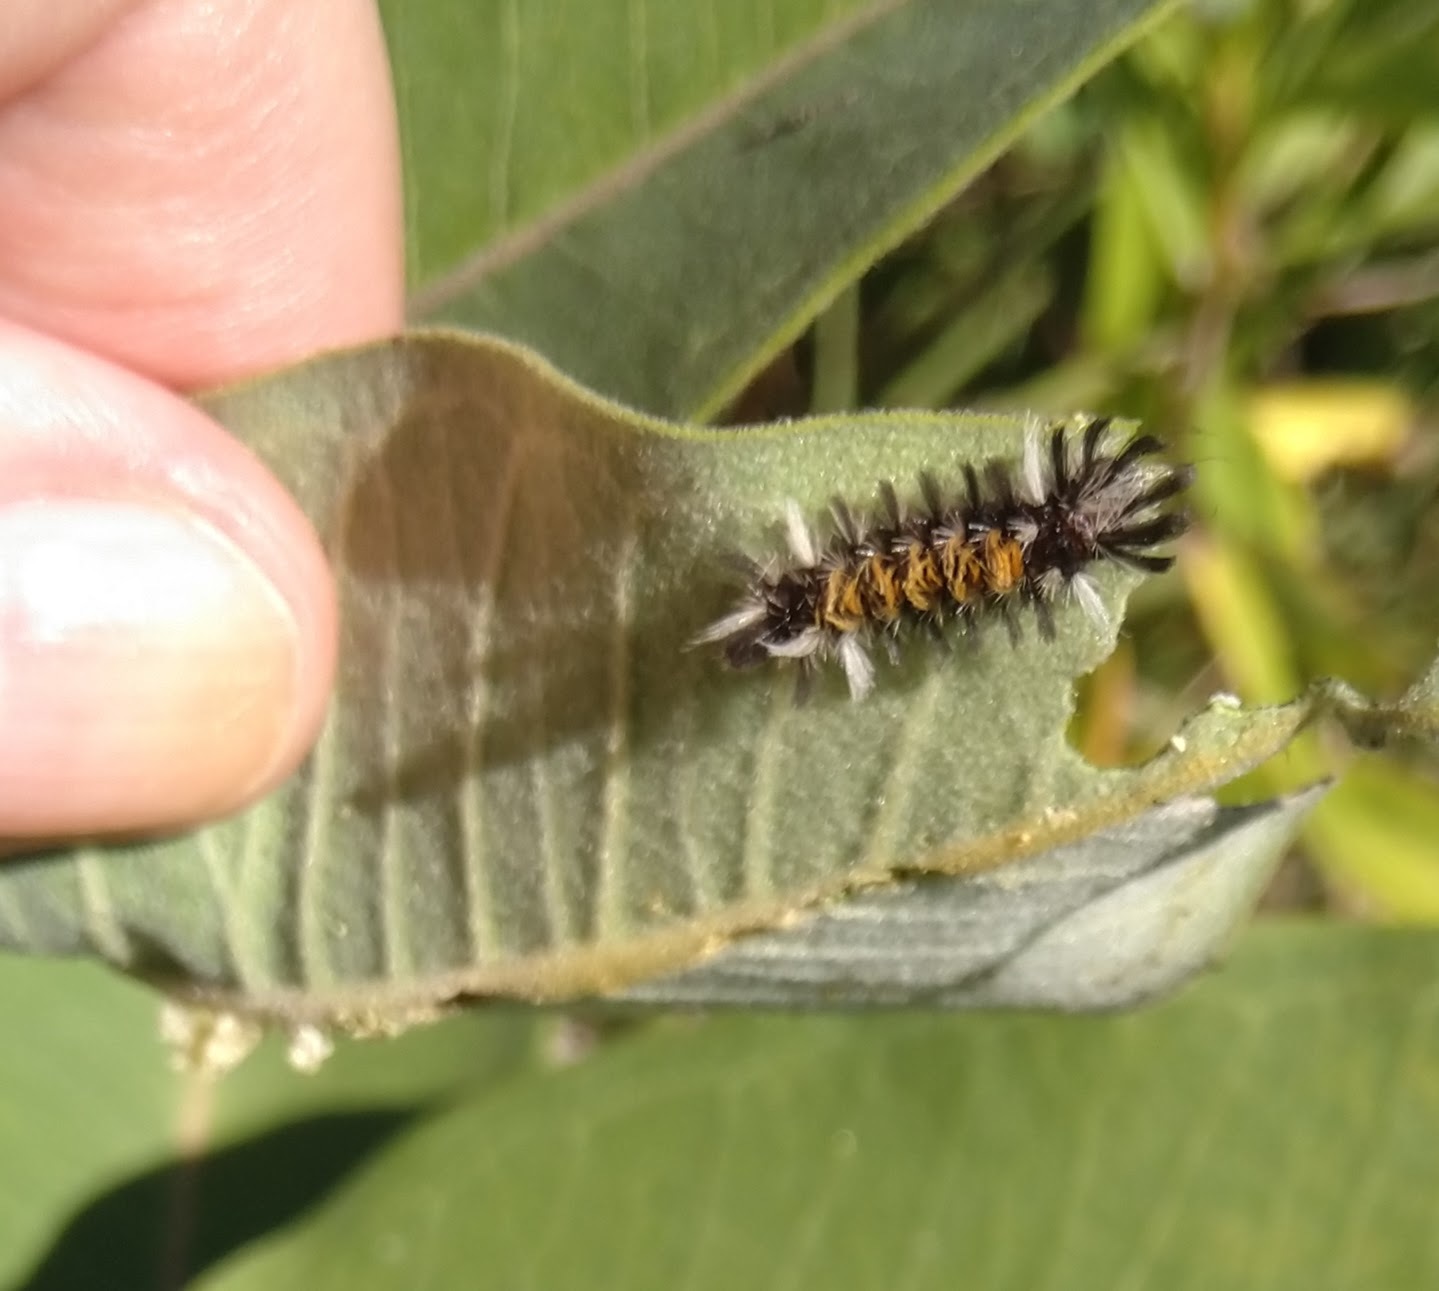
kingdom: Animalia
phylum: Arthropoda
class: Insecta
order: Lepidoptera
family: Erebidae
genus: Euchaetes
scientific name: Euchaetes egle
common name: Milkweed tussock moth
